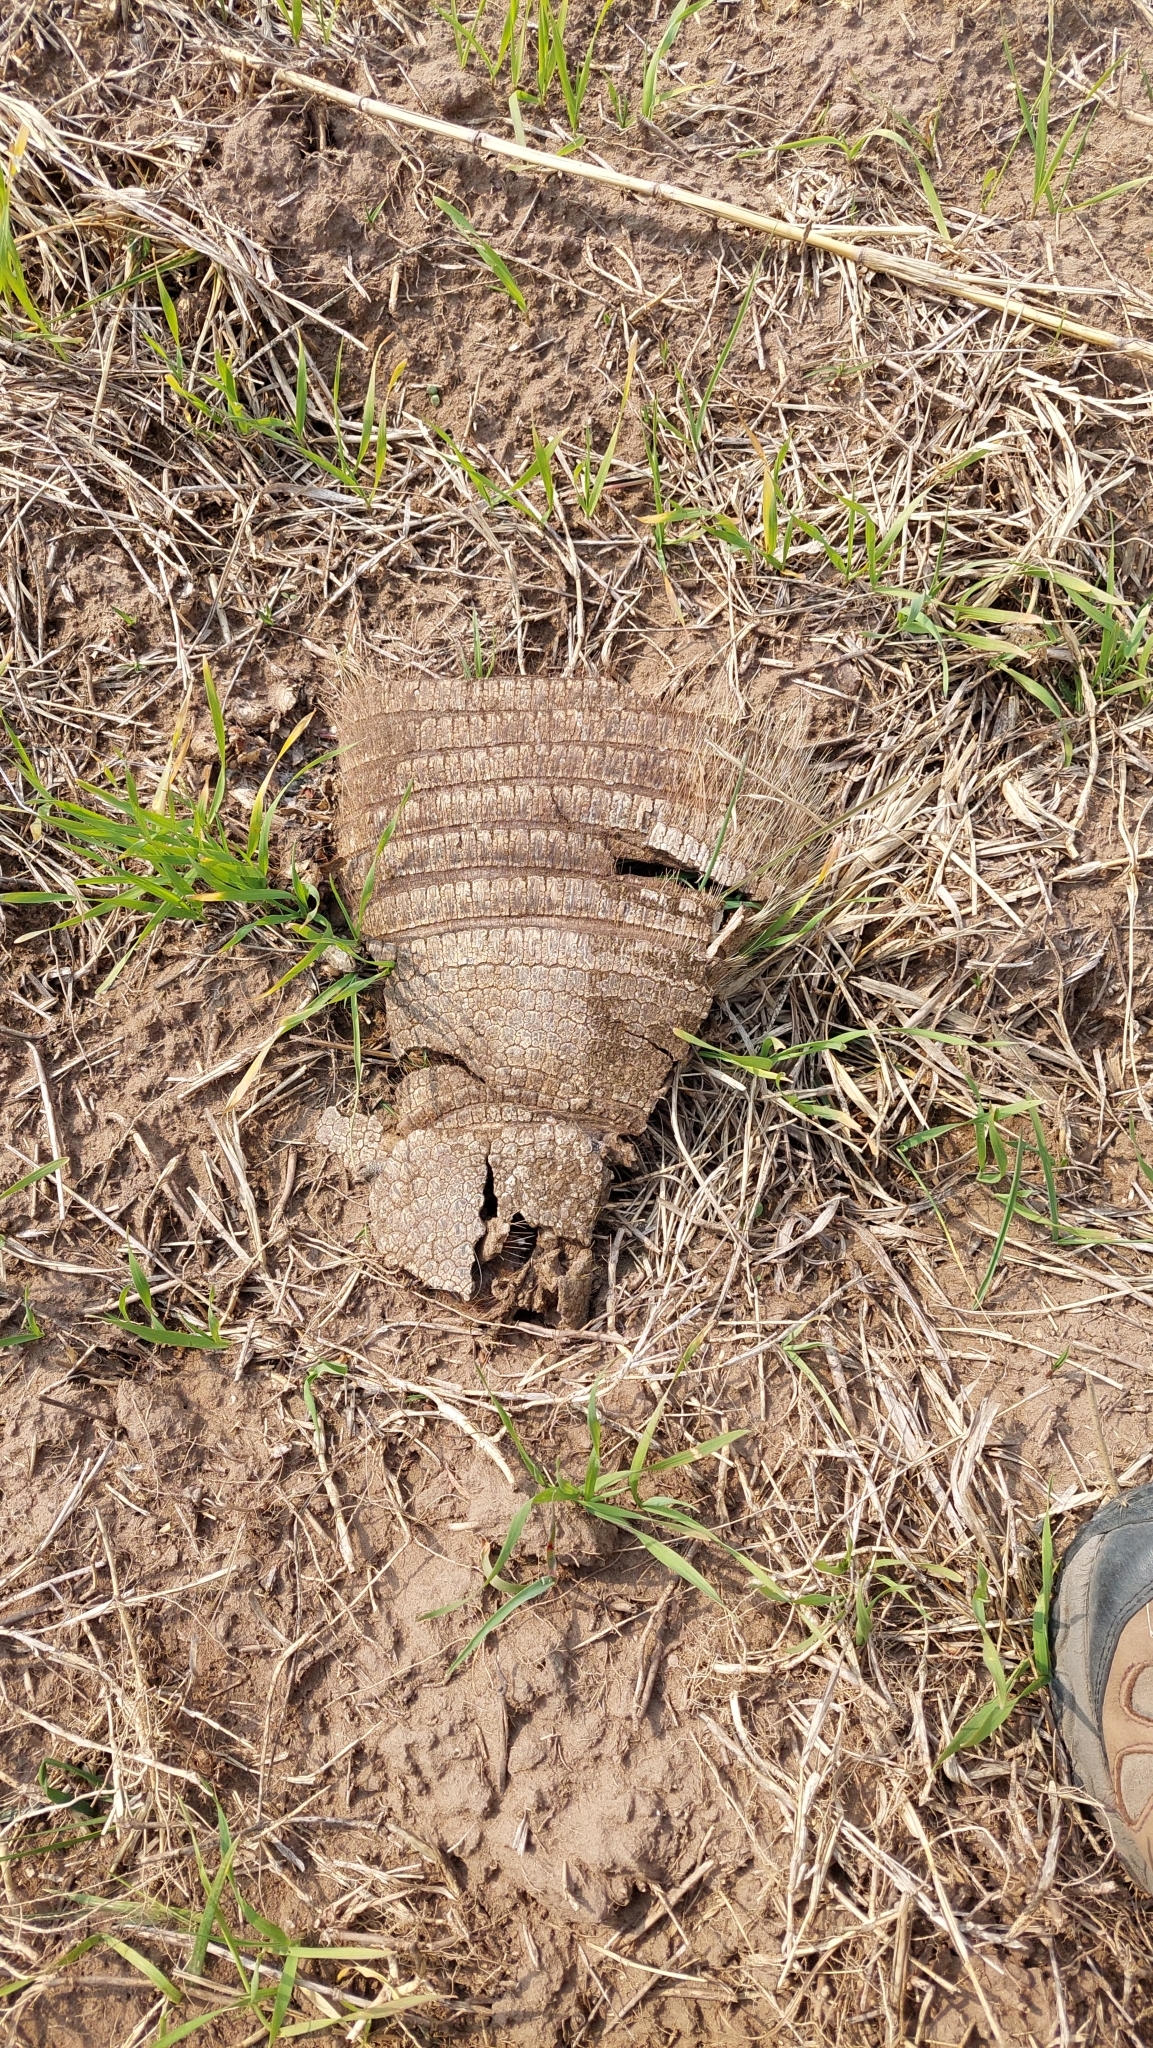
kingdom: Animalia
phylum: Chordata
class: Mammalia
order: Cingulata
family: Dasypodidae
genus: Chaetophractus
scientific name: Chaetophractus villosus
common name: Big hairy armadillo
